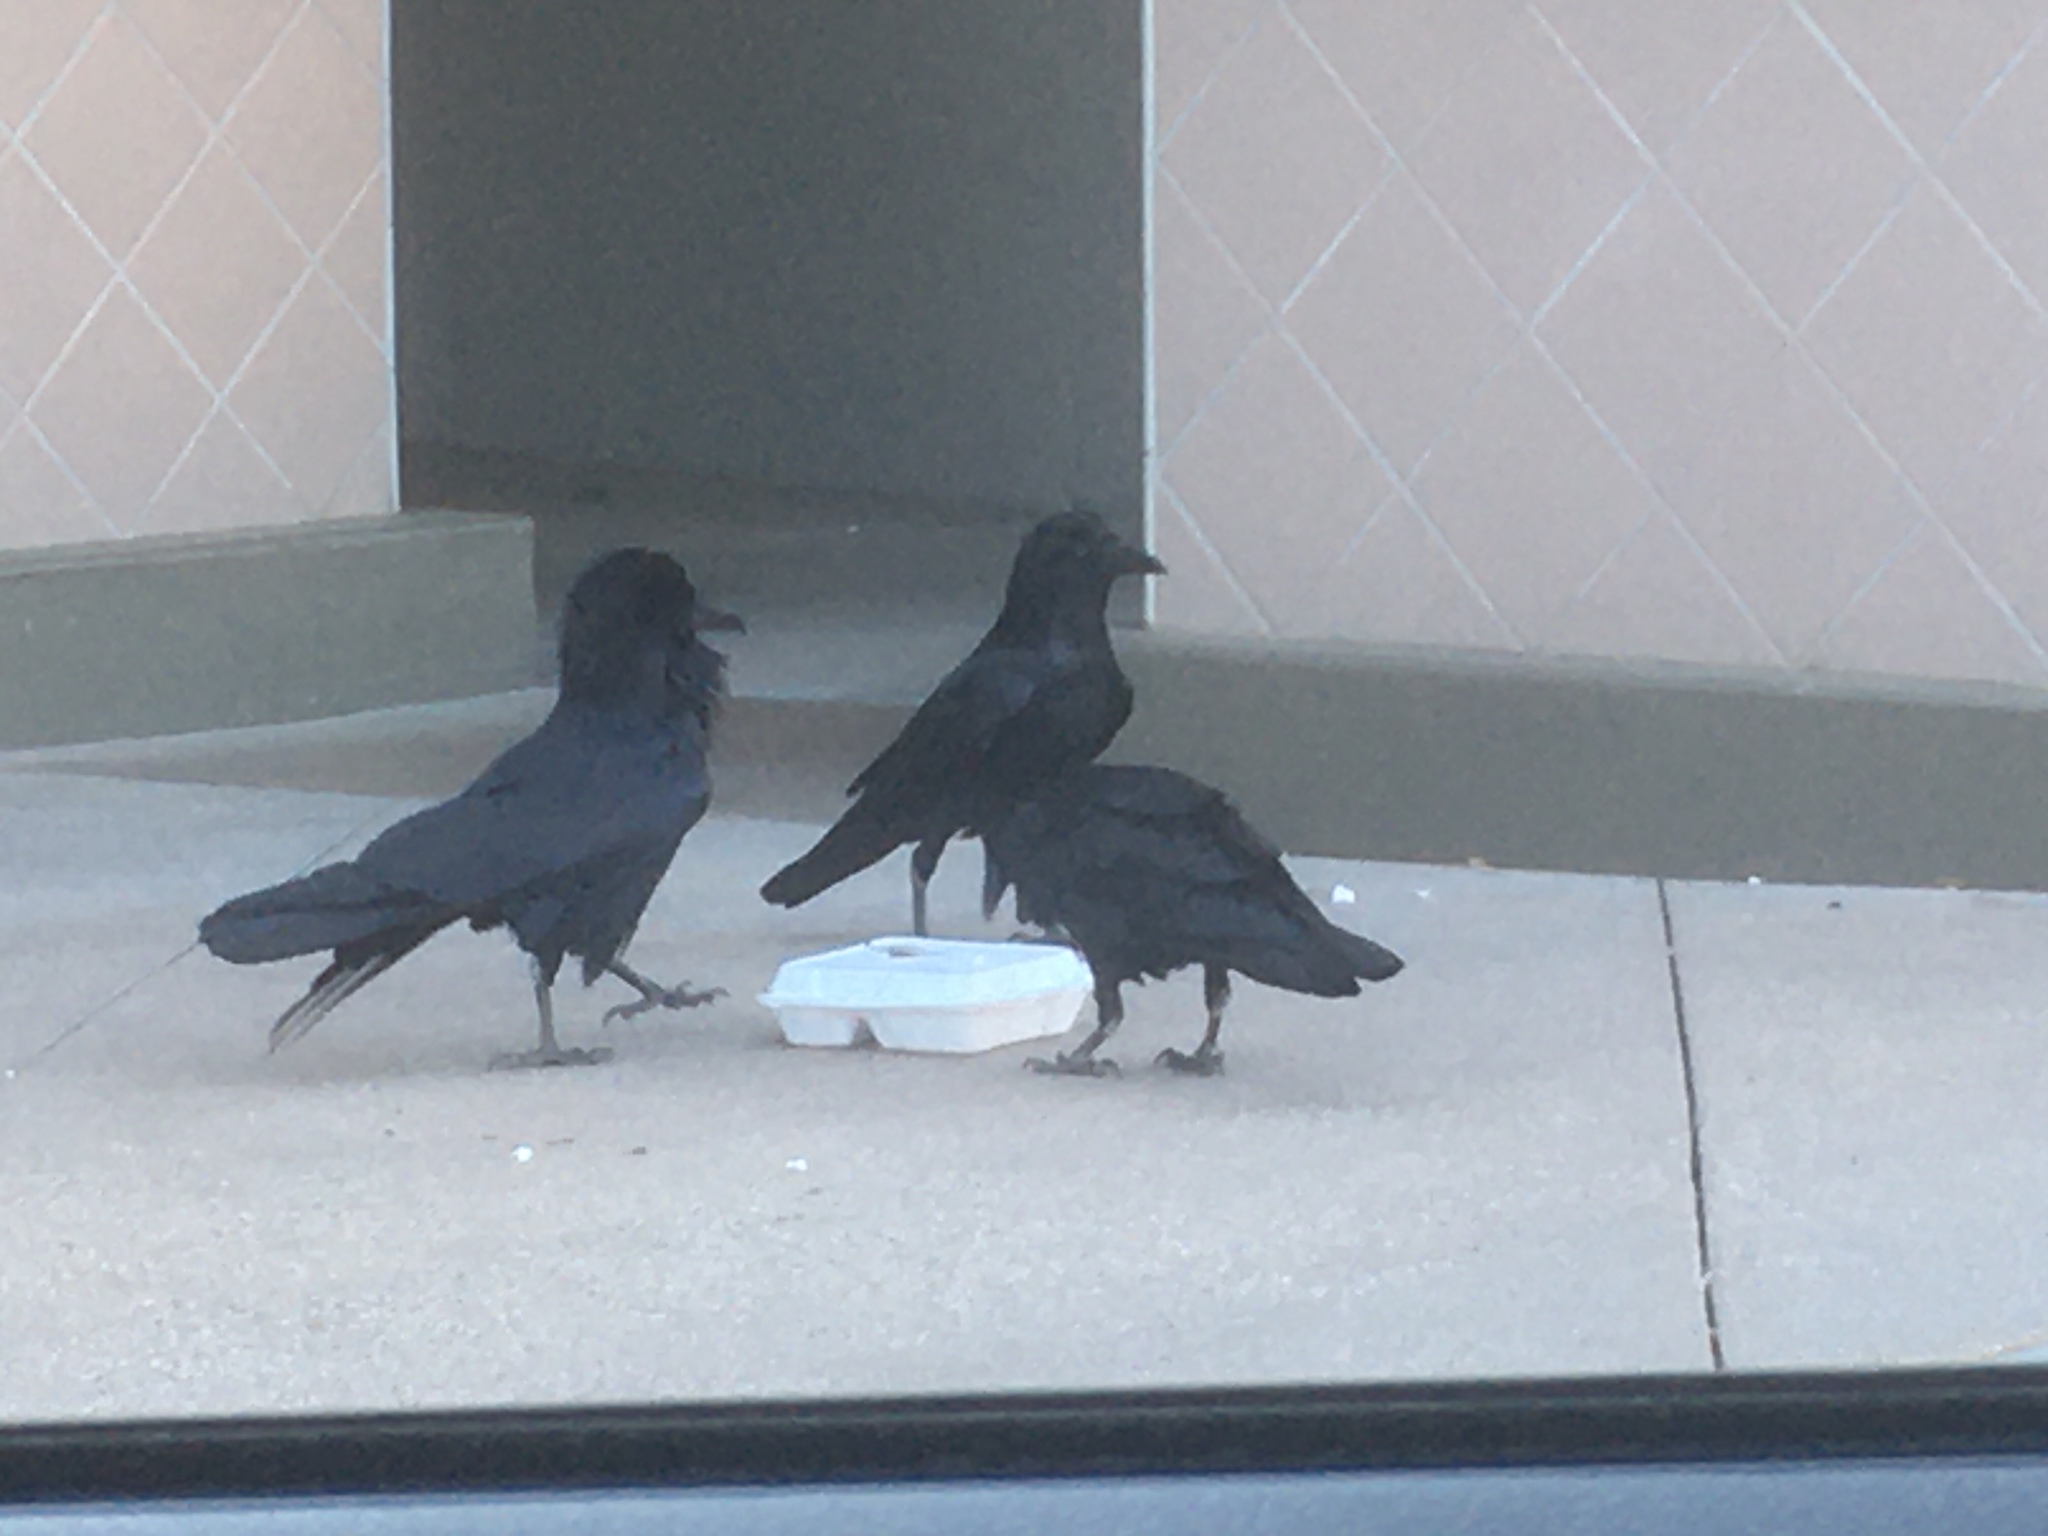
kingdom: Animalia
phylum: Chordata
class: Aves
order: Passeriformes
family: Corvidae
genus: Corvus
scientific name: Corvus corax
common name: Common raven
